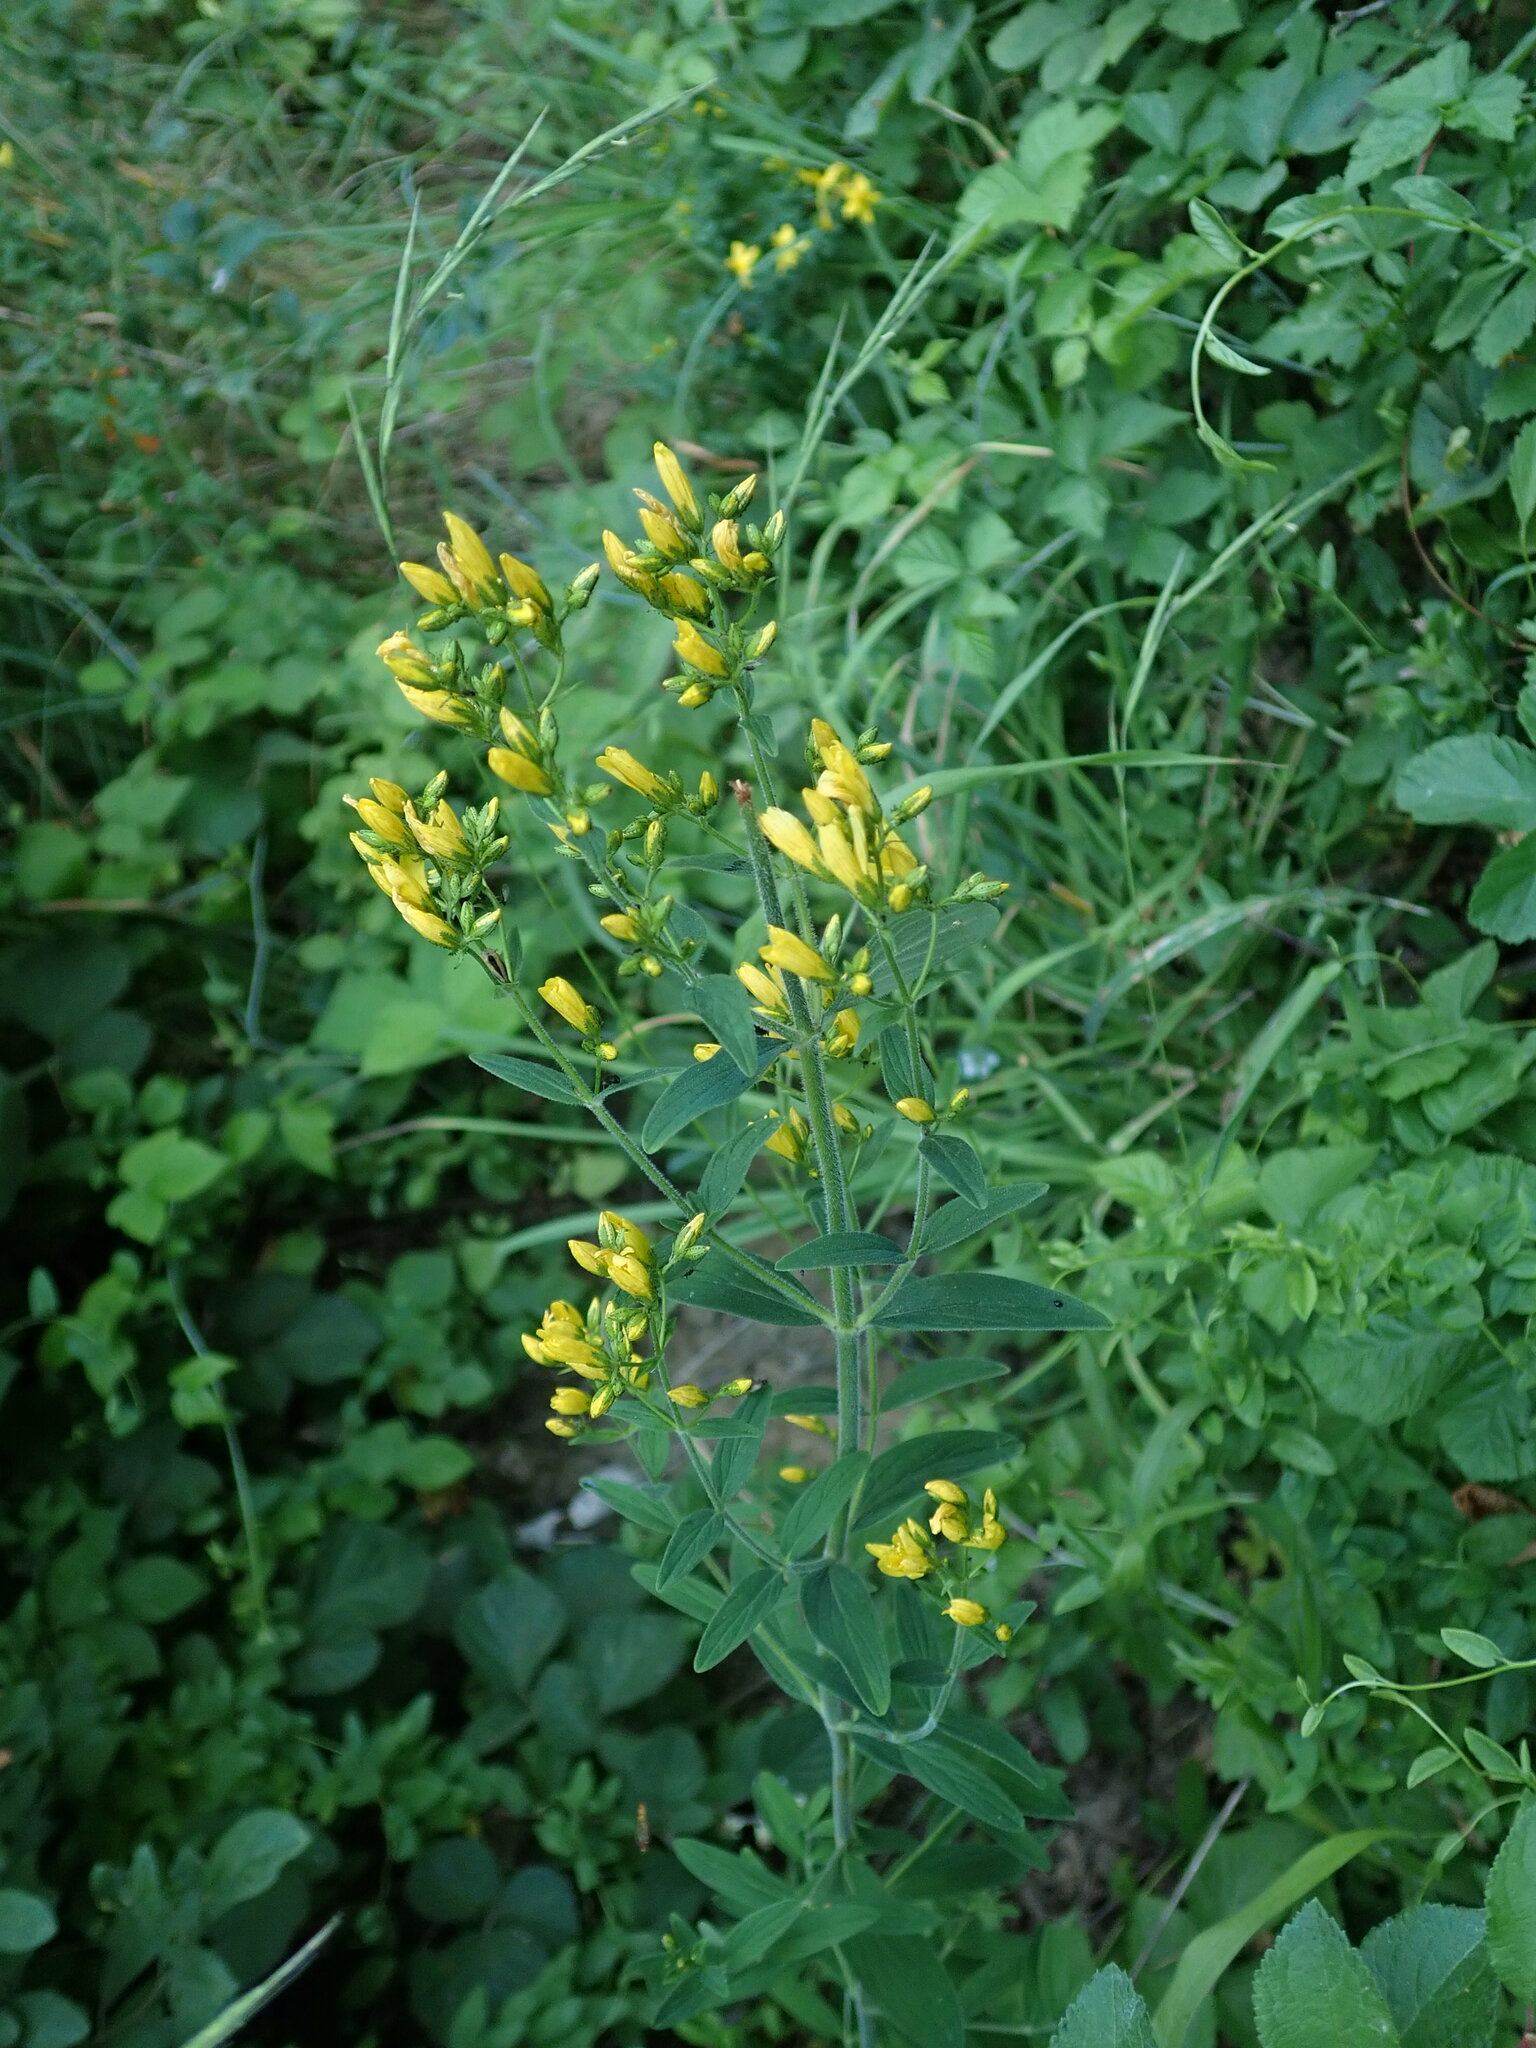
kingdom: Plantae
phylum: Tracheophyta
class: Magnoliopsida
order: Malpighiales
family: Hypericaceae
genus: Hypericum
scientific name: Hypericum hirsutum
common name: Hairy st. john's-wort
